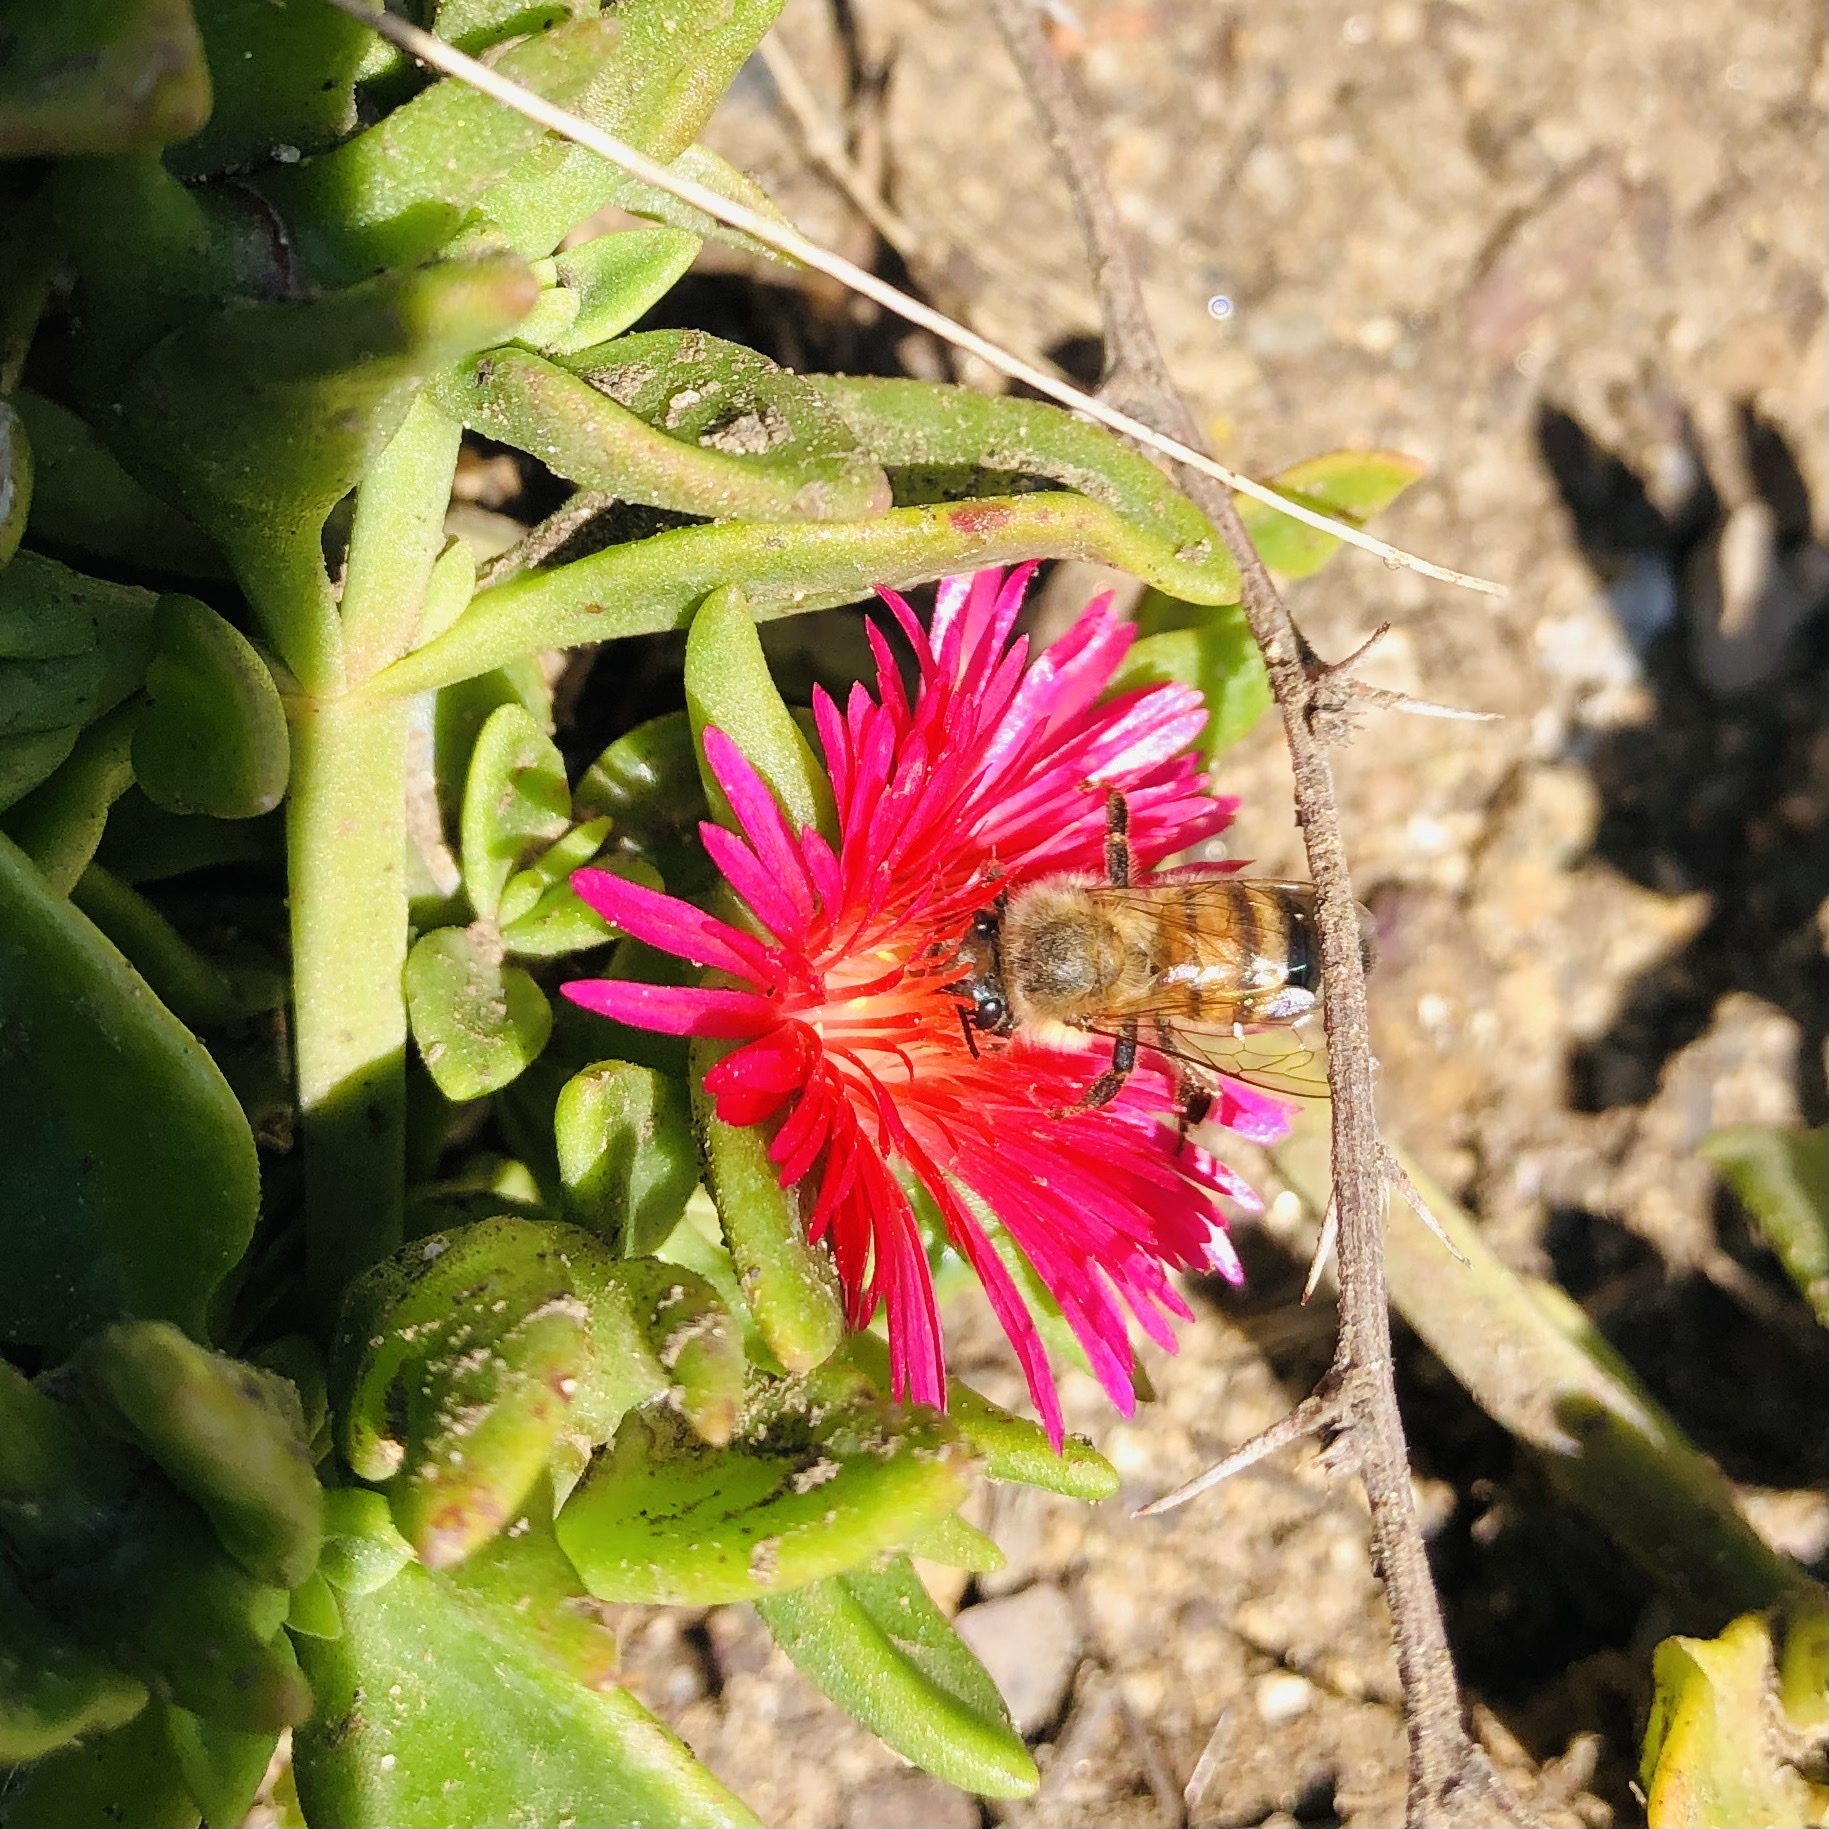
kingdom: Animalia
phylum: Arthropoda
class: Insecta
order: Hymenoptera
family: Apidae
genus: Apis
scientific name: Apis mellifera
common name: Honey bee
